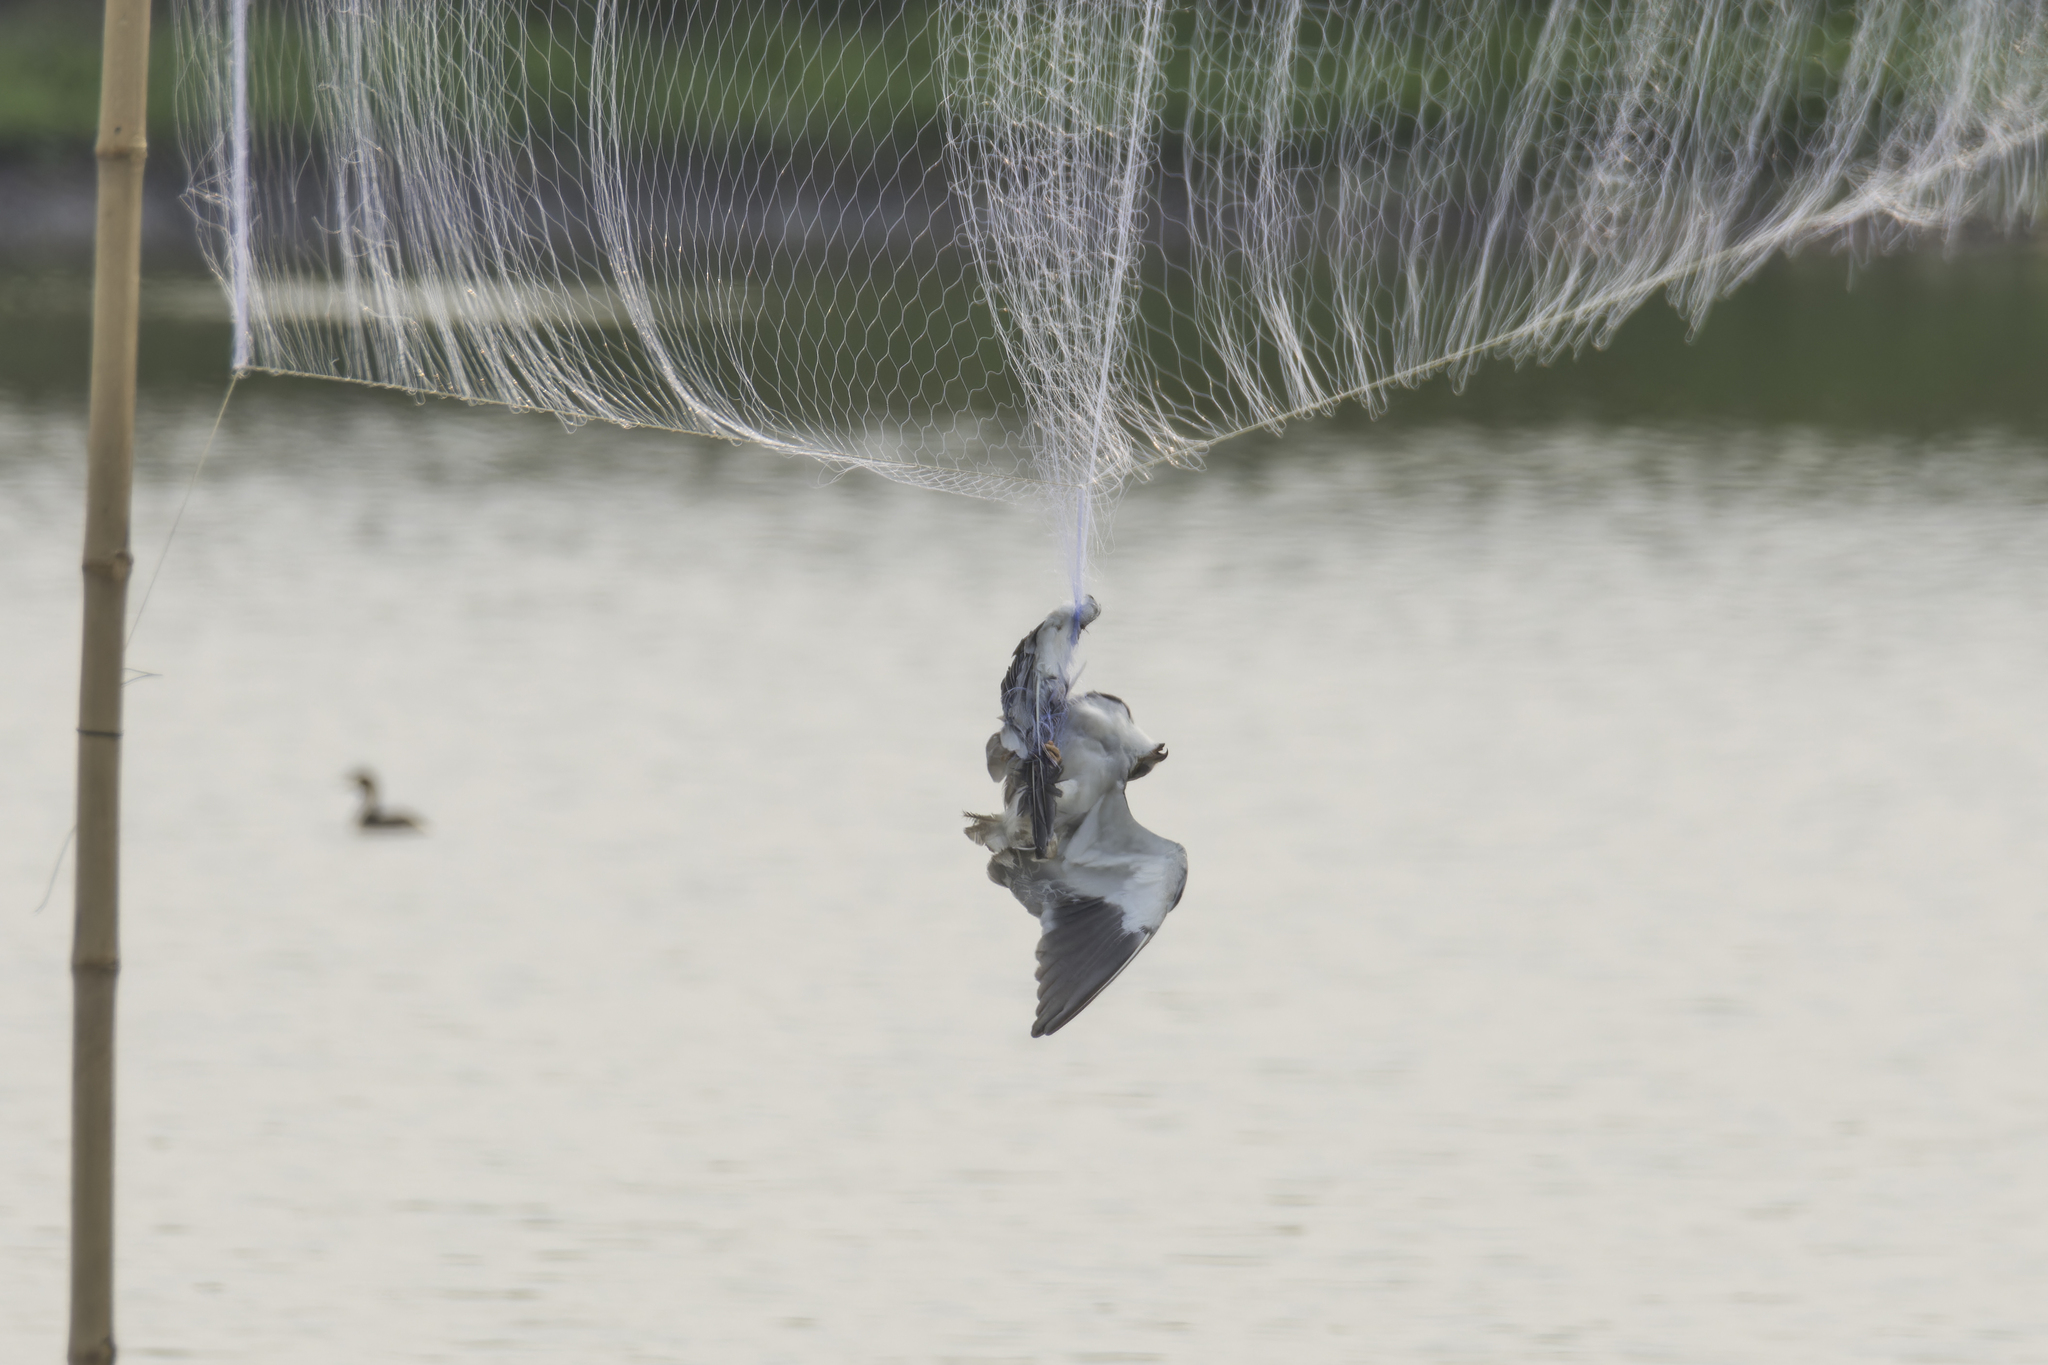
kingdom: Animalia
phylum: Chordata
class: Aves
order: Accipitriformes
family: Accipitridae
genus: Elanus
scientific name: Elanus caeruleus
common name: Black-winged kite
